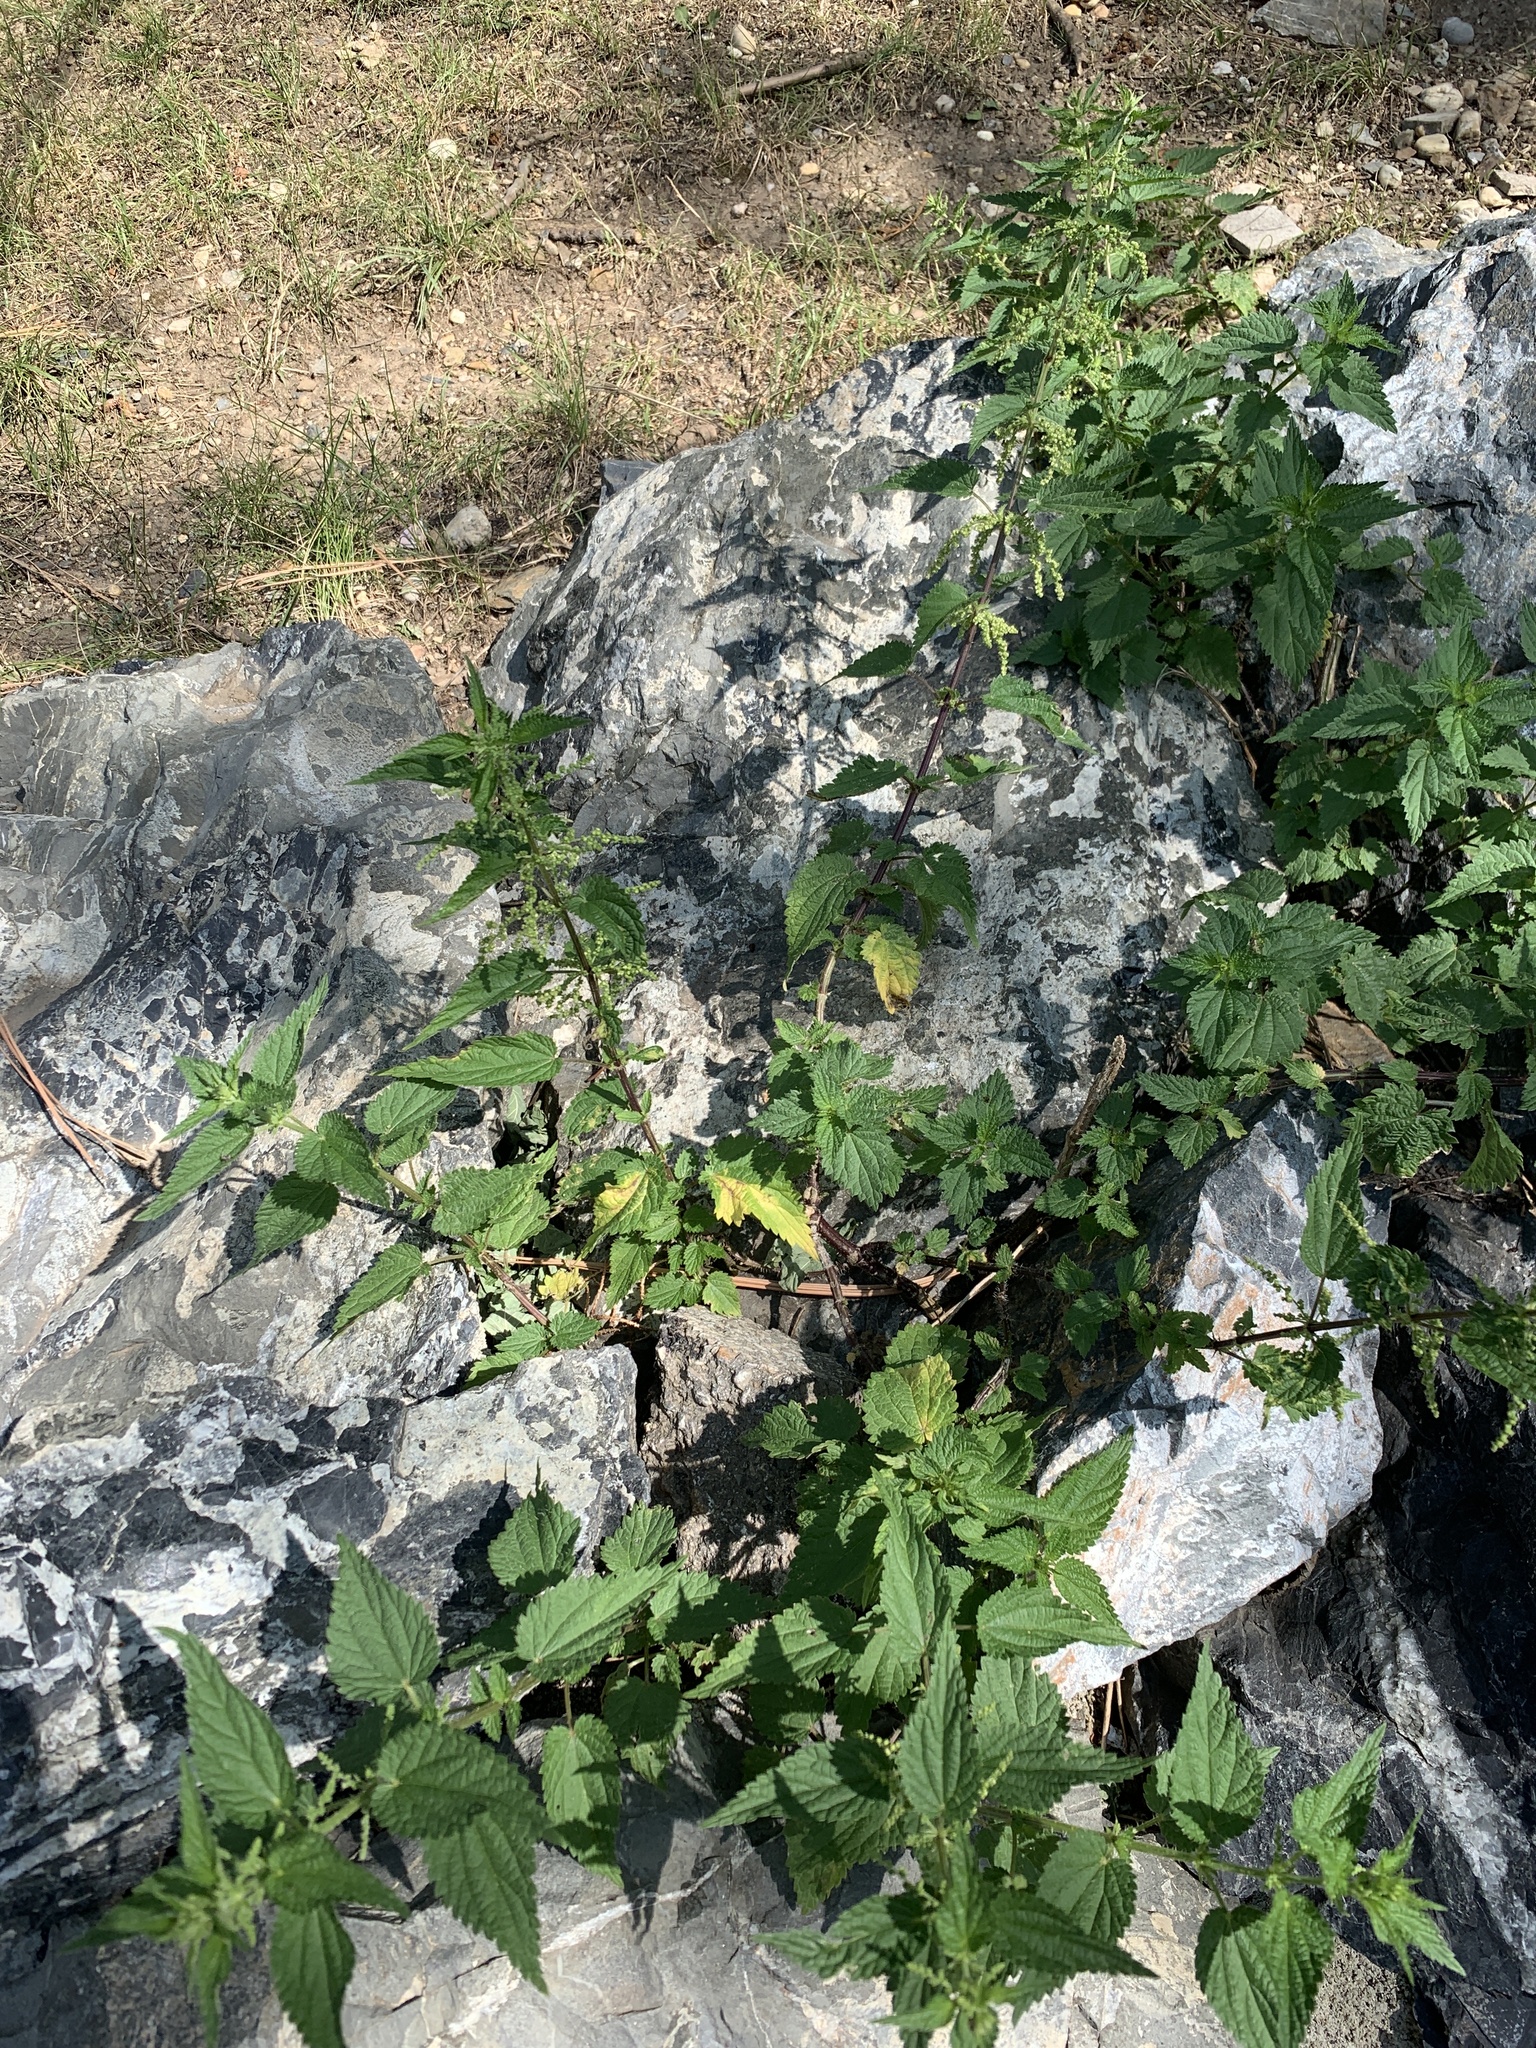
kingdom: Plantae
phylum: Tracheophyta
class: Magnoliopsida
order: Rosales
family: Urticaceae
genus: Urtica
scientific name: Urtica dioica
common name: Common nettle
